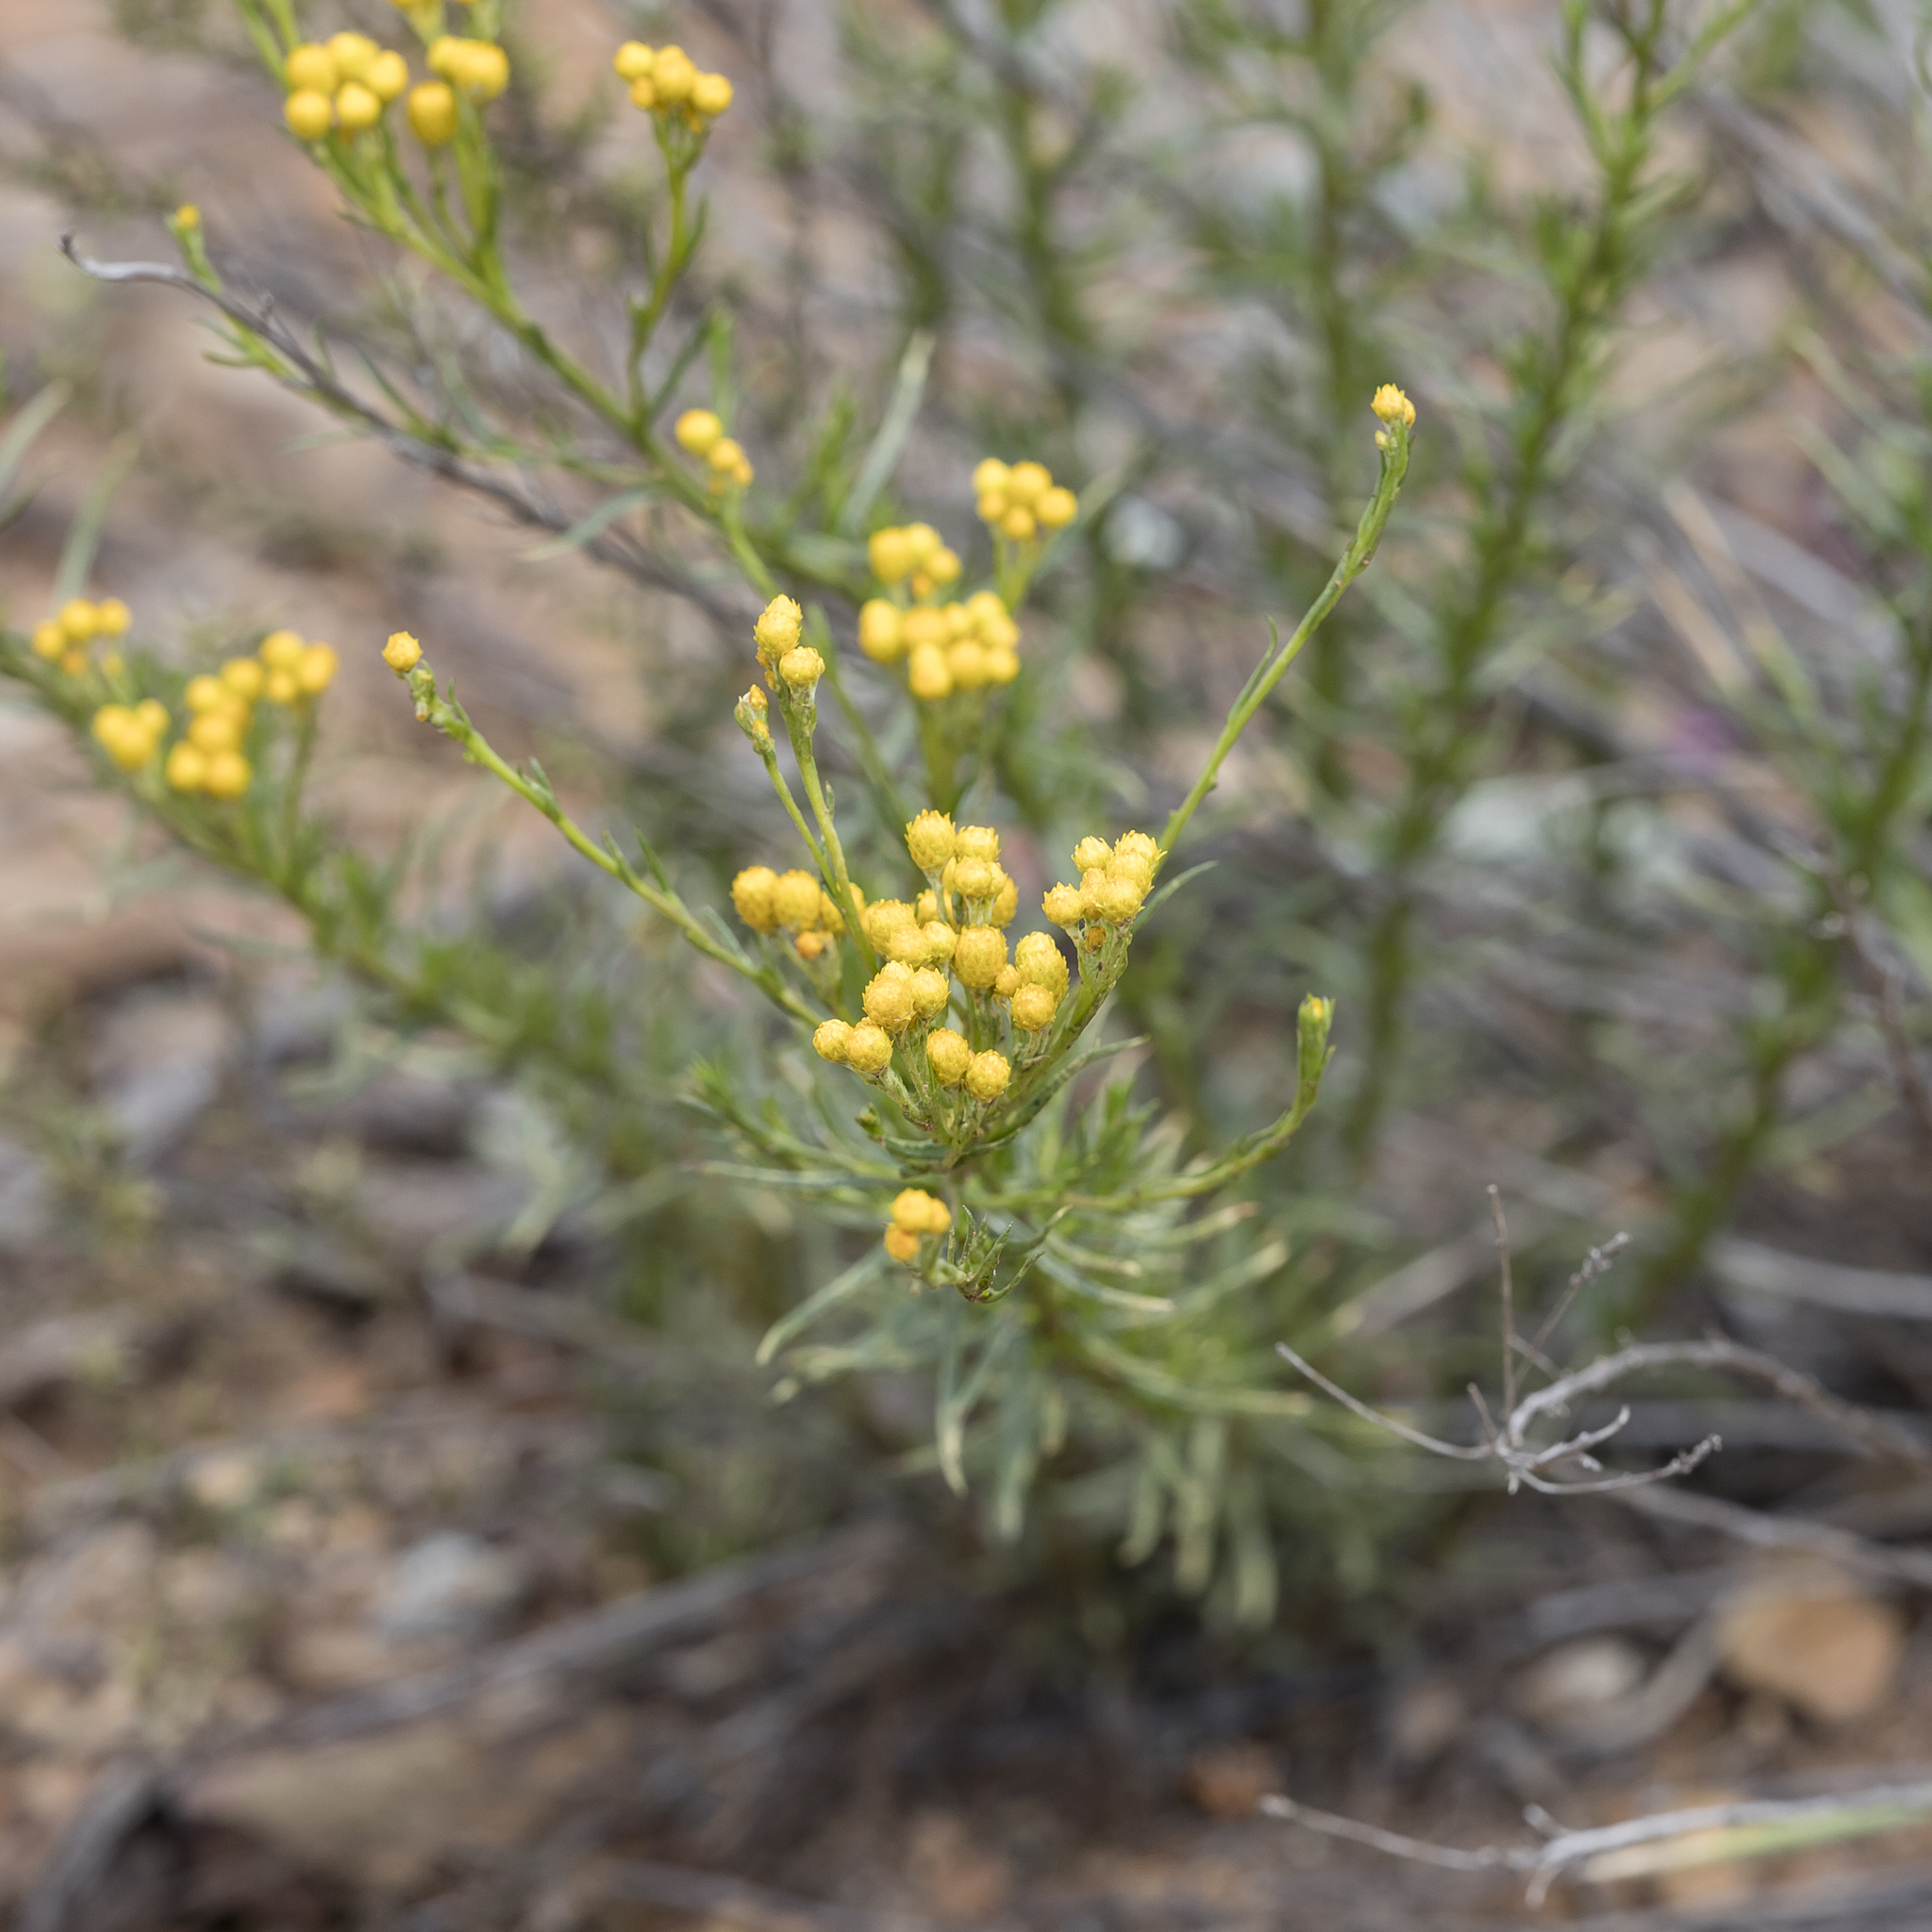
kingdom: Plantae
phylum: Tracheophyta
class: Magnoliopsida
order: Asterales
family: Asteraceae
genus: Chrysocephalum
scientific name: Chrysocephalum semipapposum
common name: Clustered everlasting
